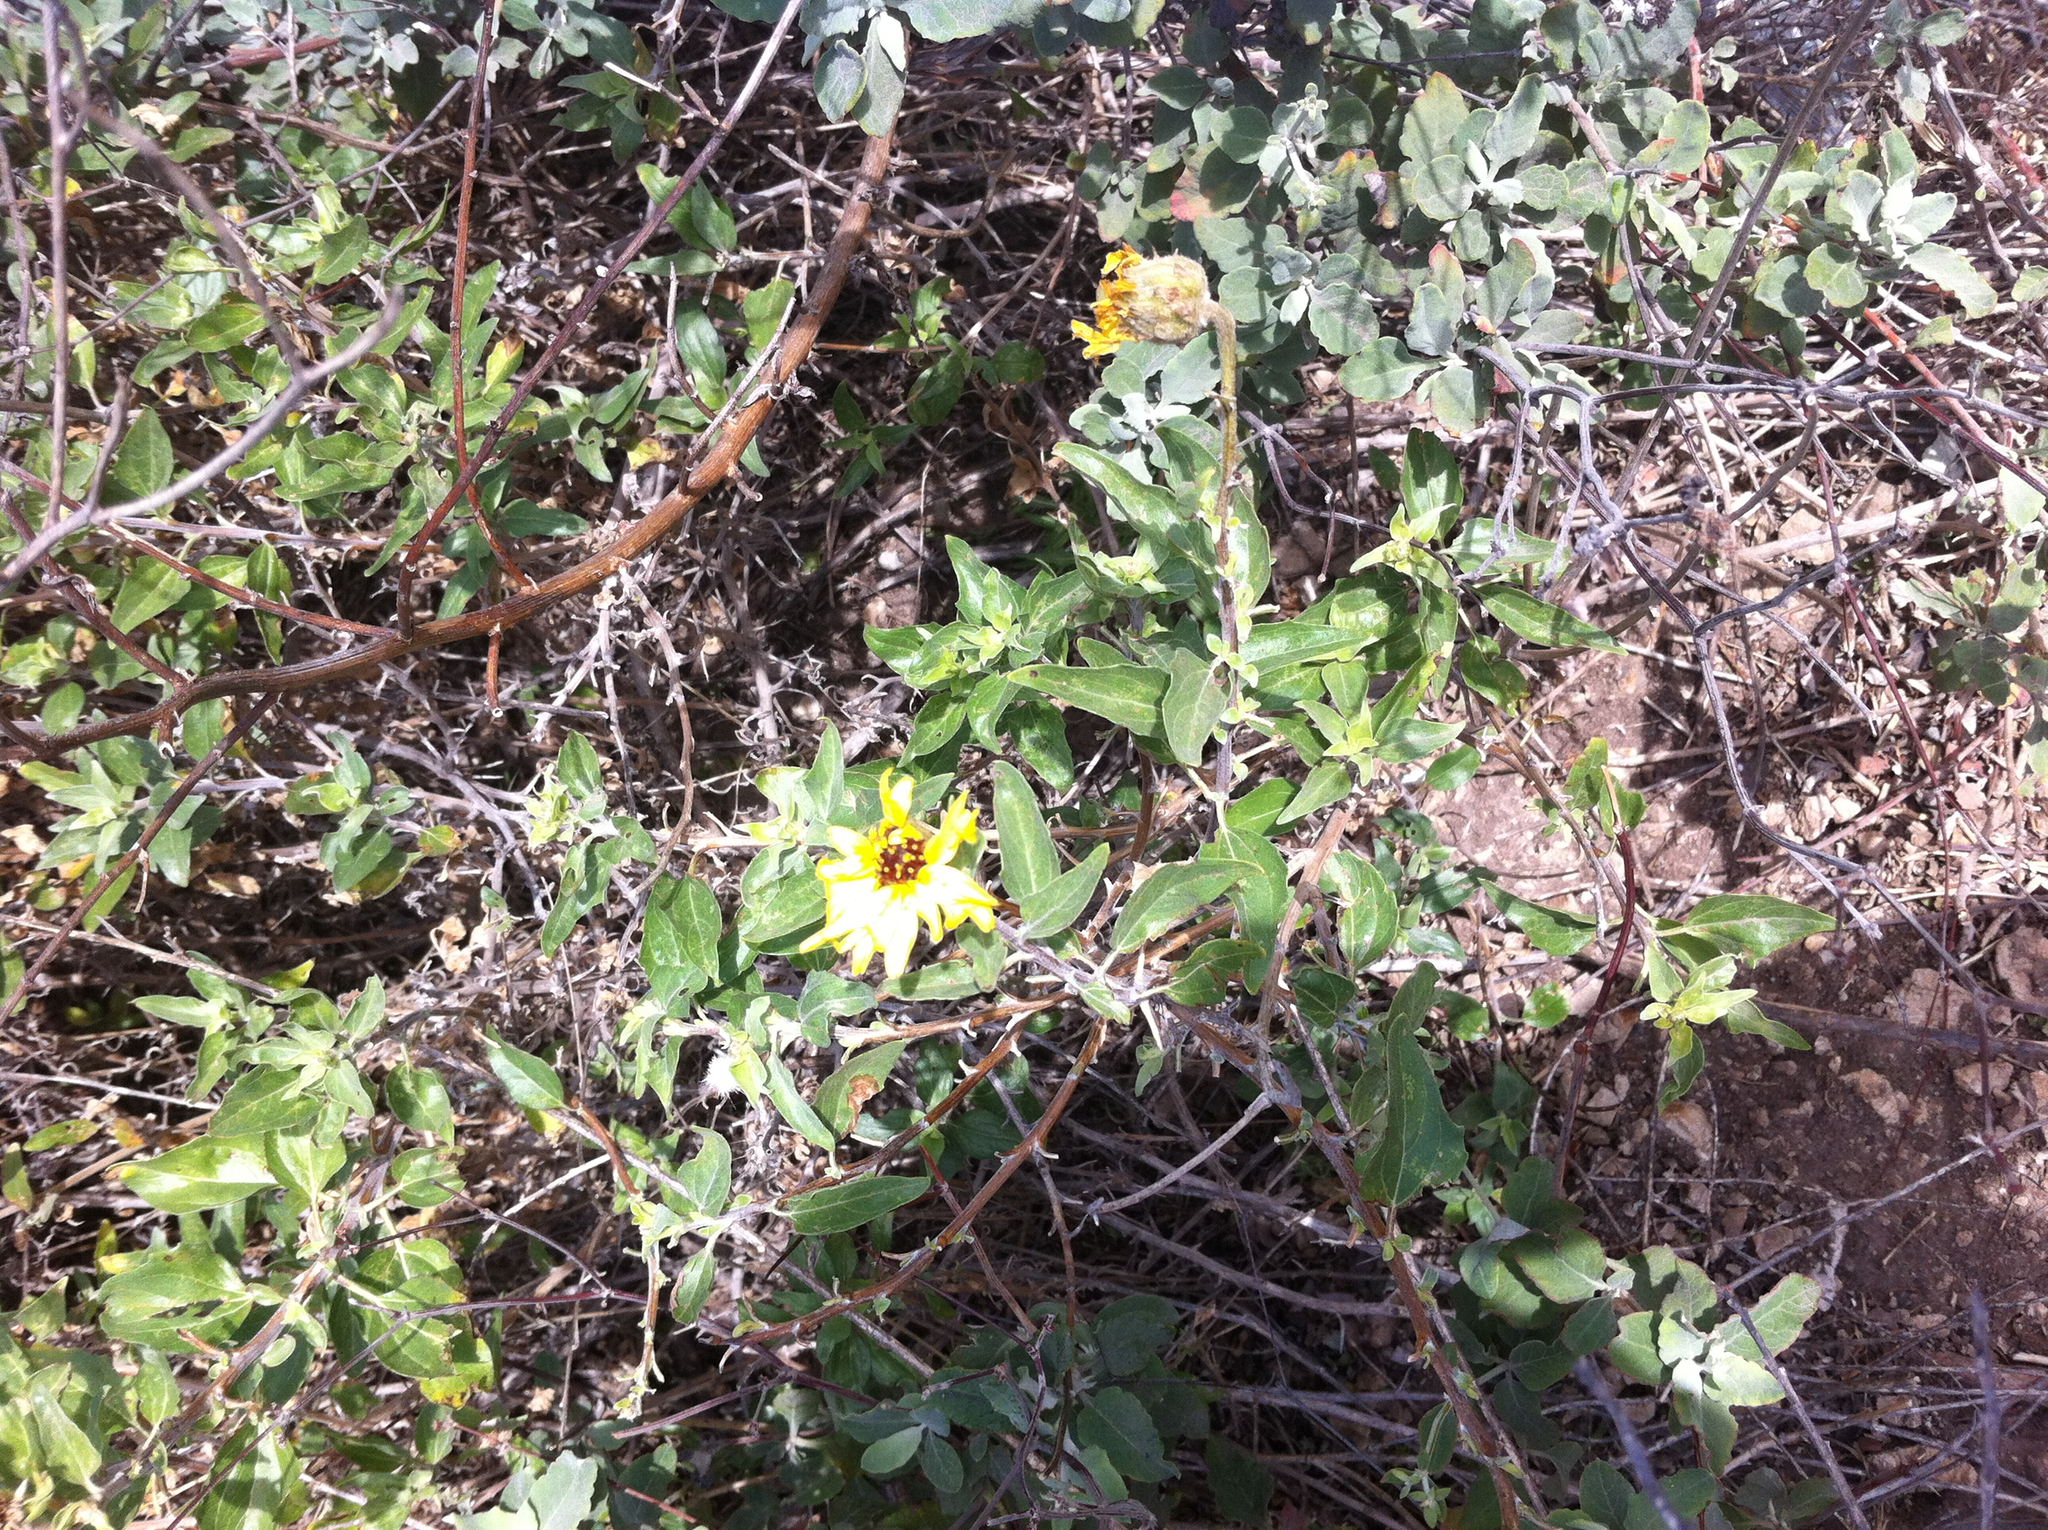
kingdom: Plantae
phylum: Tracheophyta
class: Magnoliopsida
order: Asterales
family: Asteraceae
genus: Encelia
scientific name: Encelia californica
